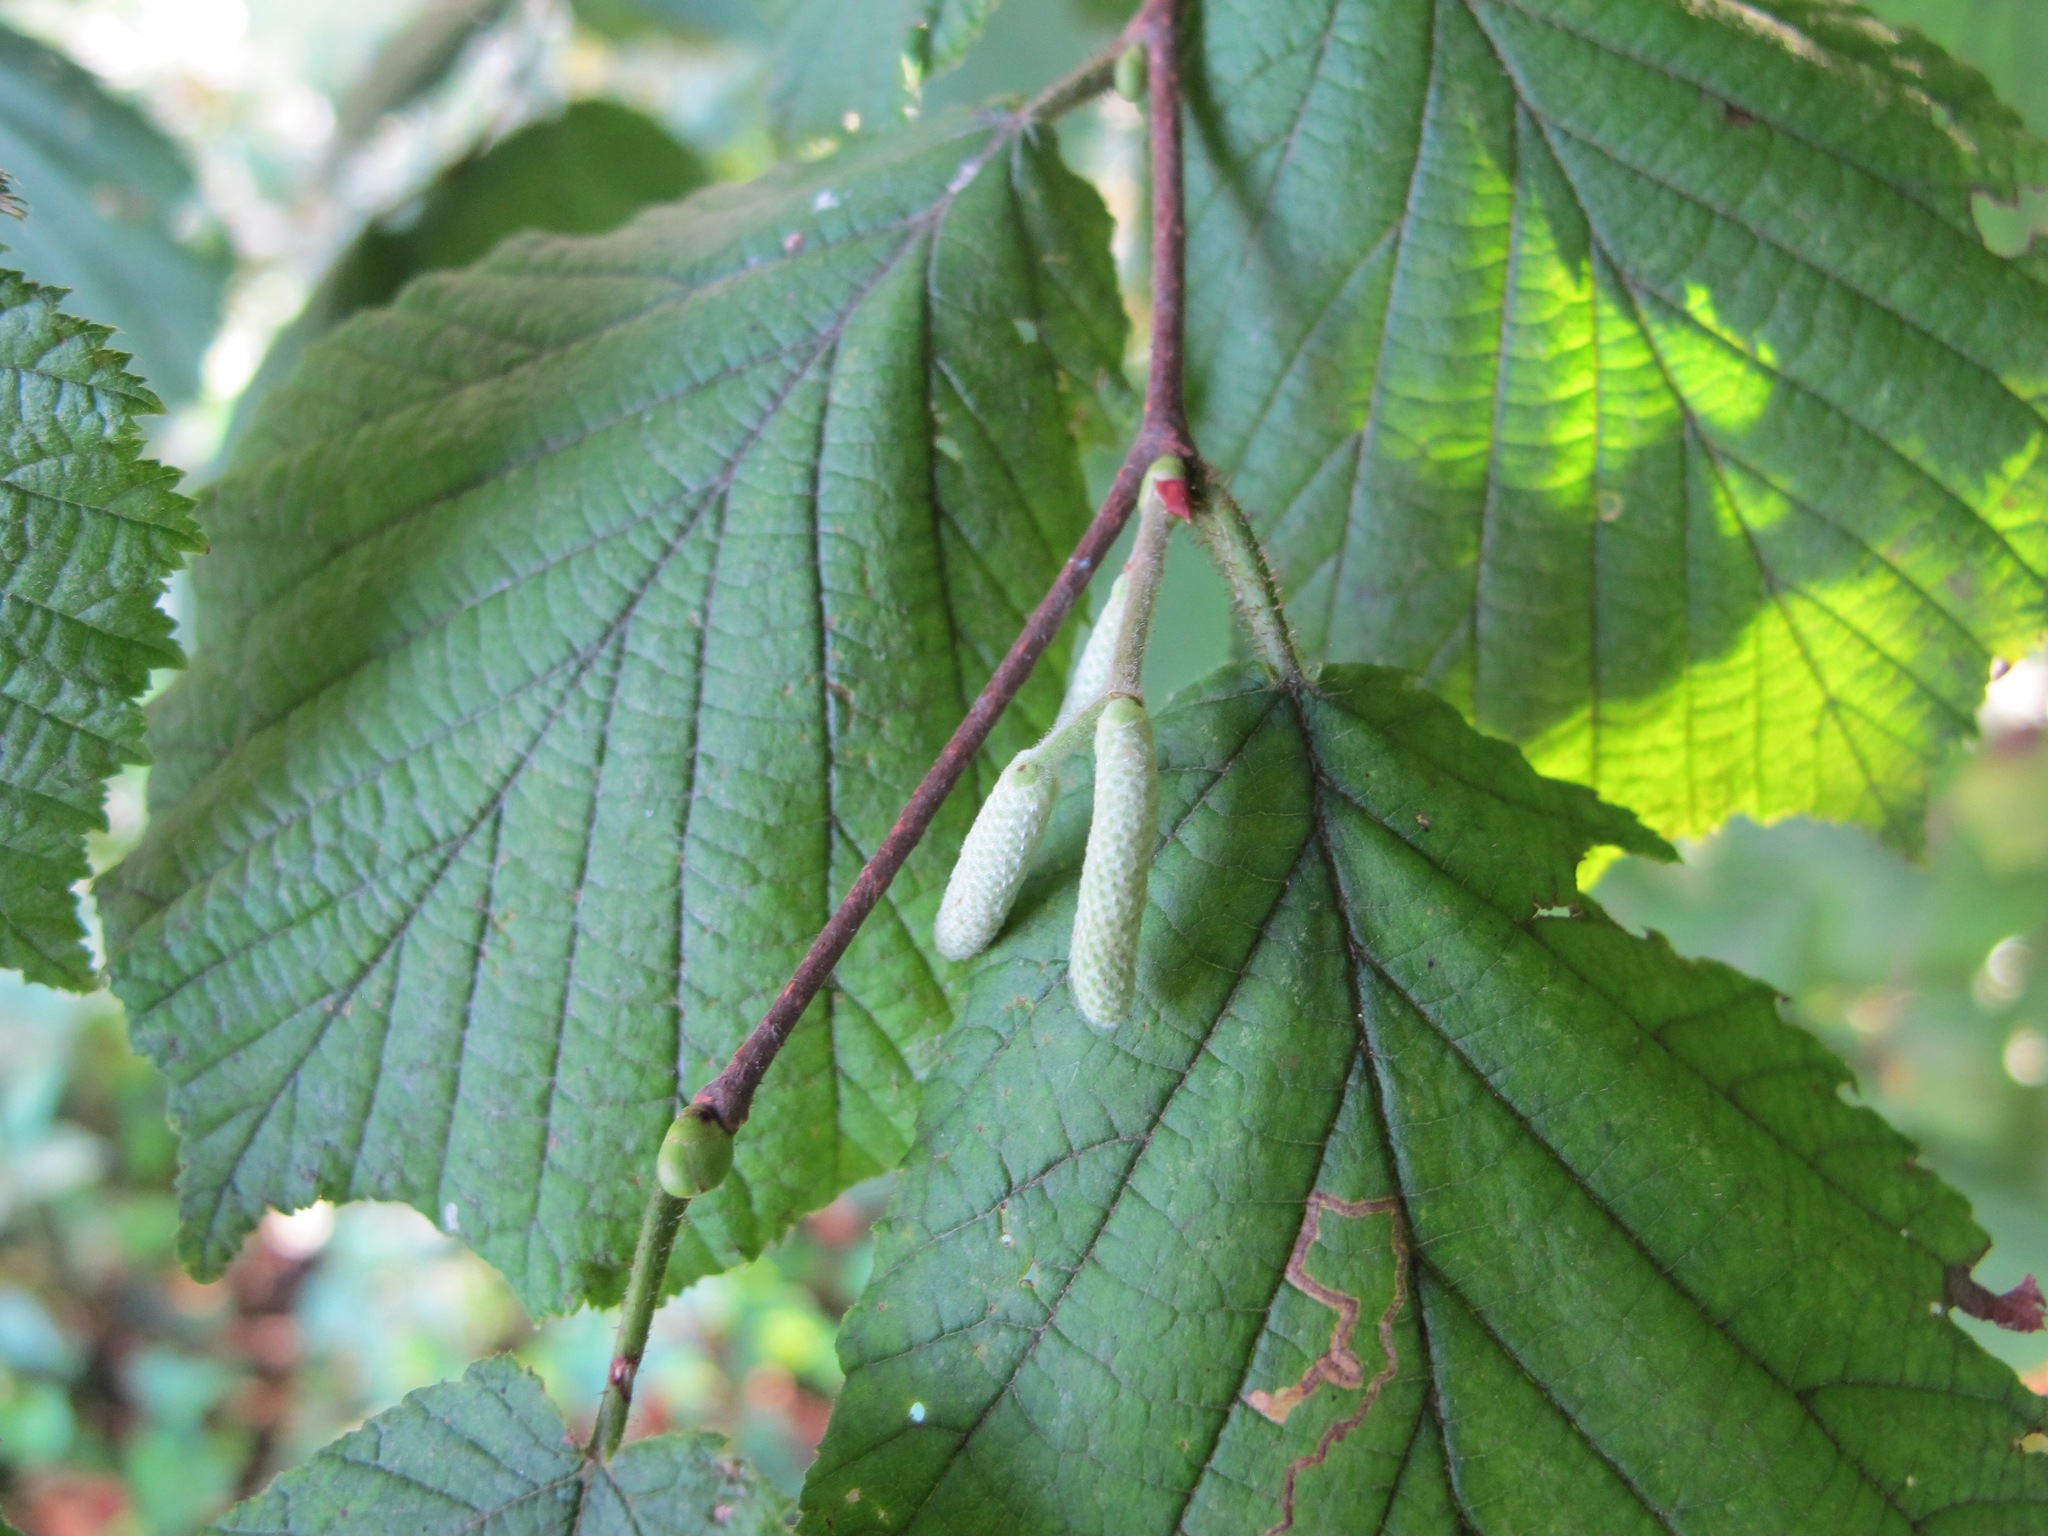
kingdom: Plantae
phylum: Tracheophyta
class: Magnoliopsida
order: Fagales
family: Betulaceae
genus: Corylus
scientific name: Corylus avellana
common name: European hazel
